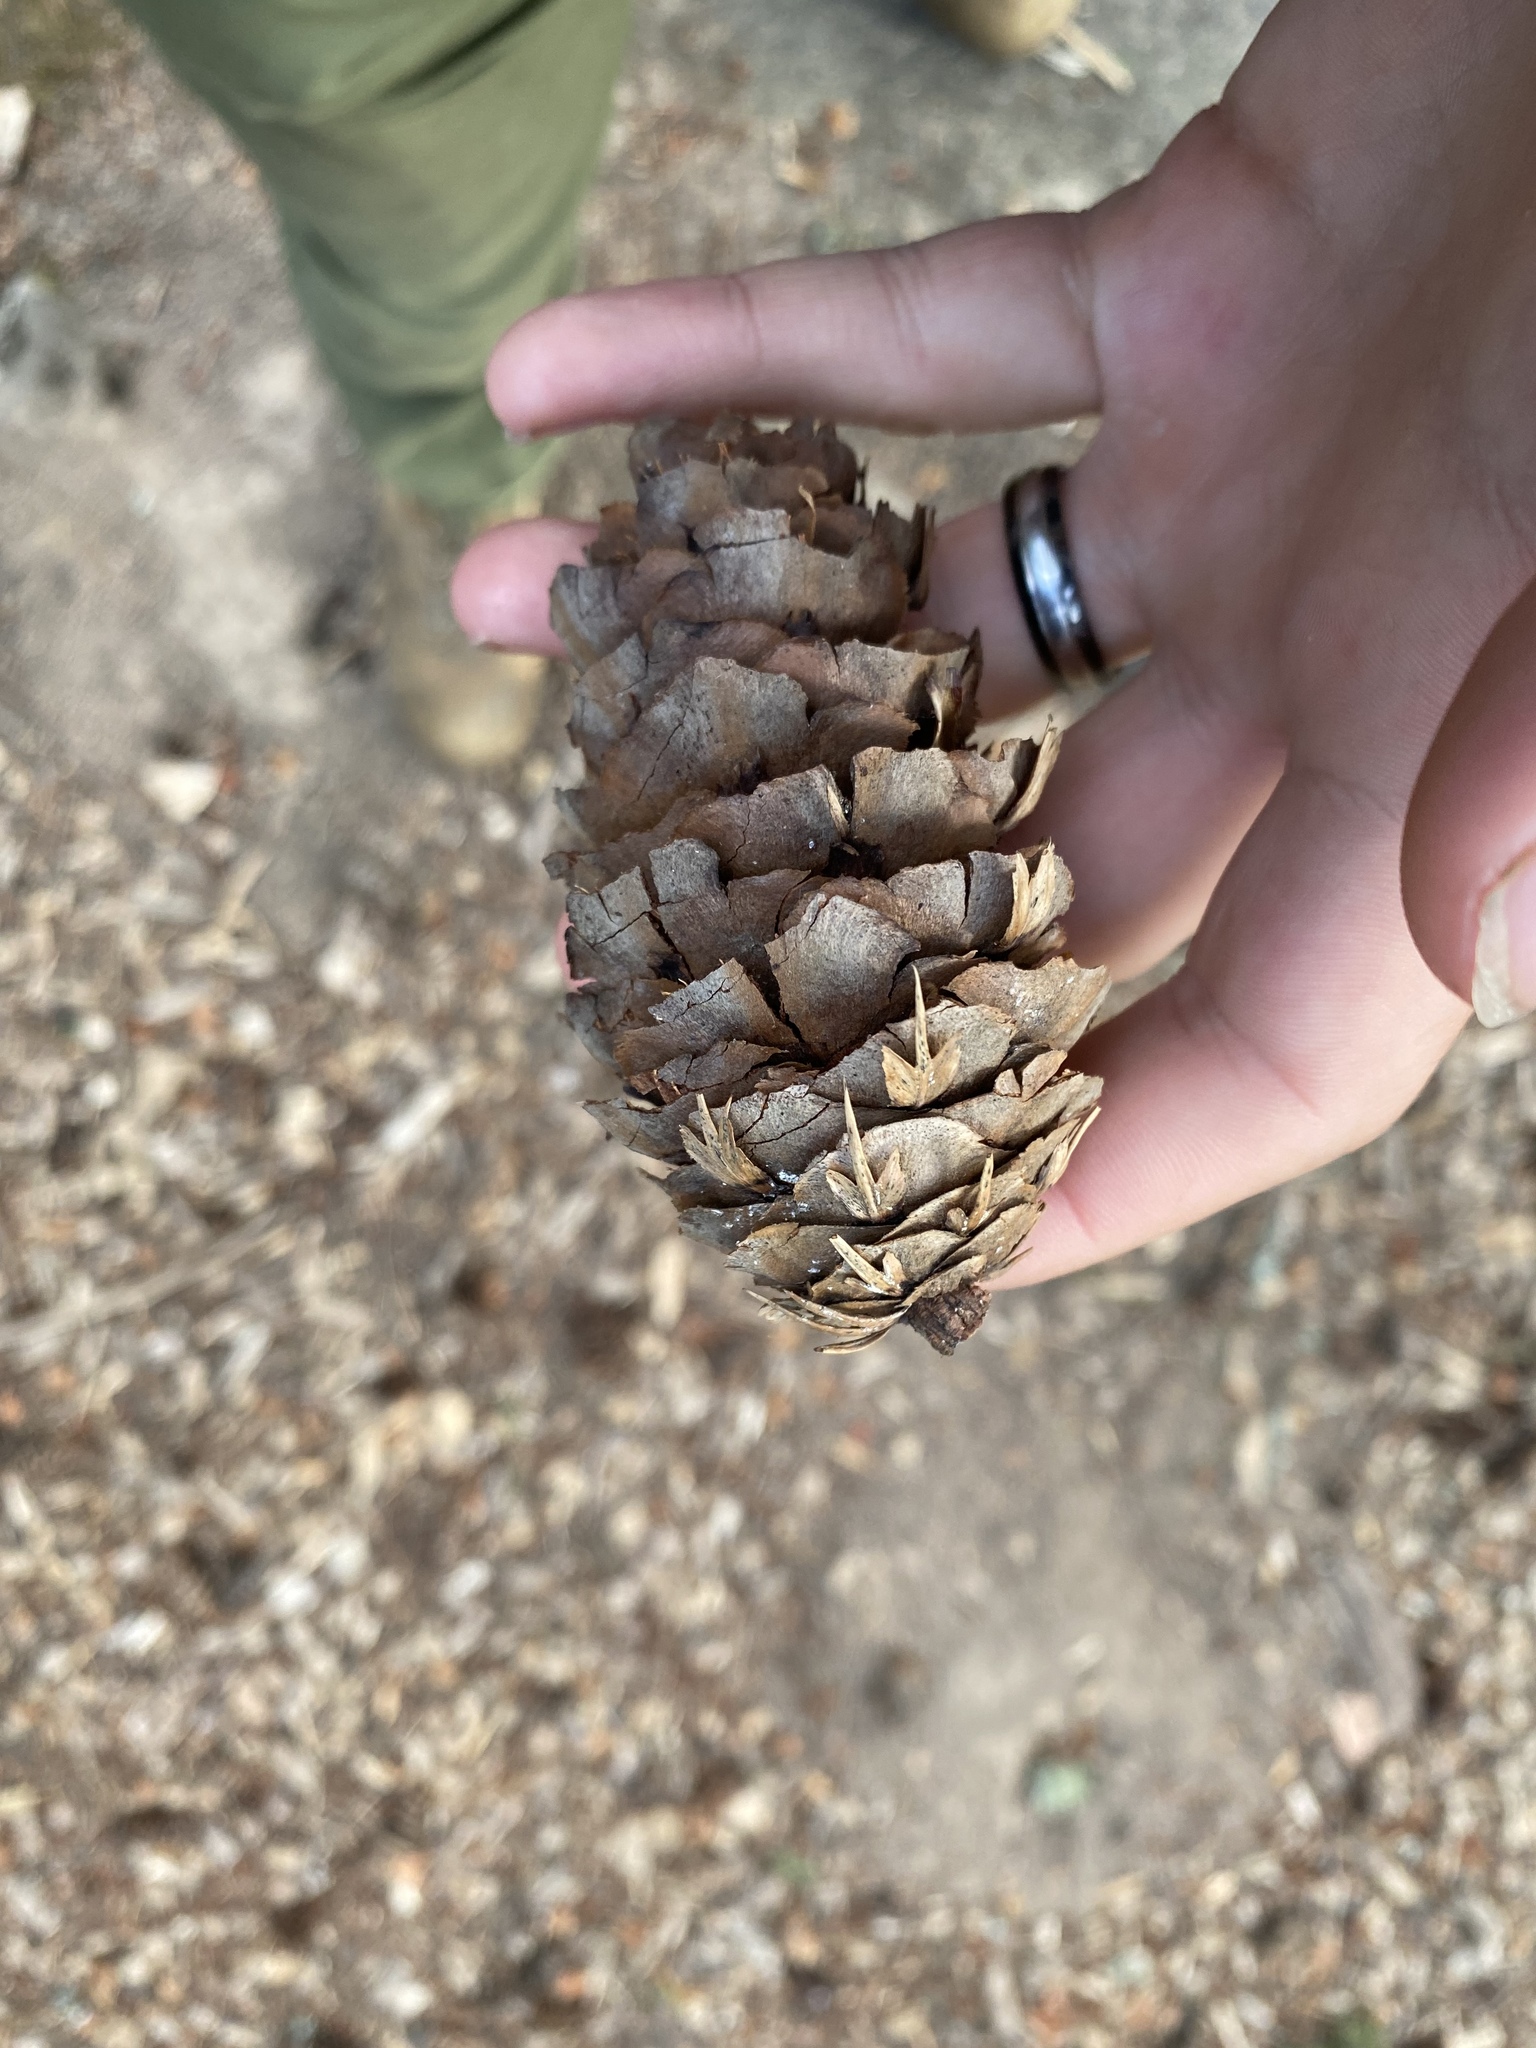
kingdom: Plantae
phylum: Tracheophyta
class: Pinopsida
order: Pinales
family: Pinaceae
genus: Pseudotsuga
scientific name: Pseudotsuga menziesii
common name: Douglas fir
